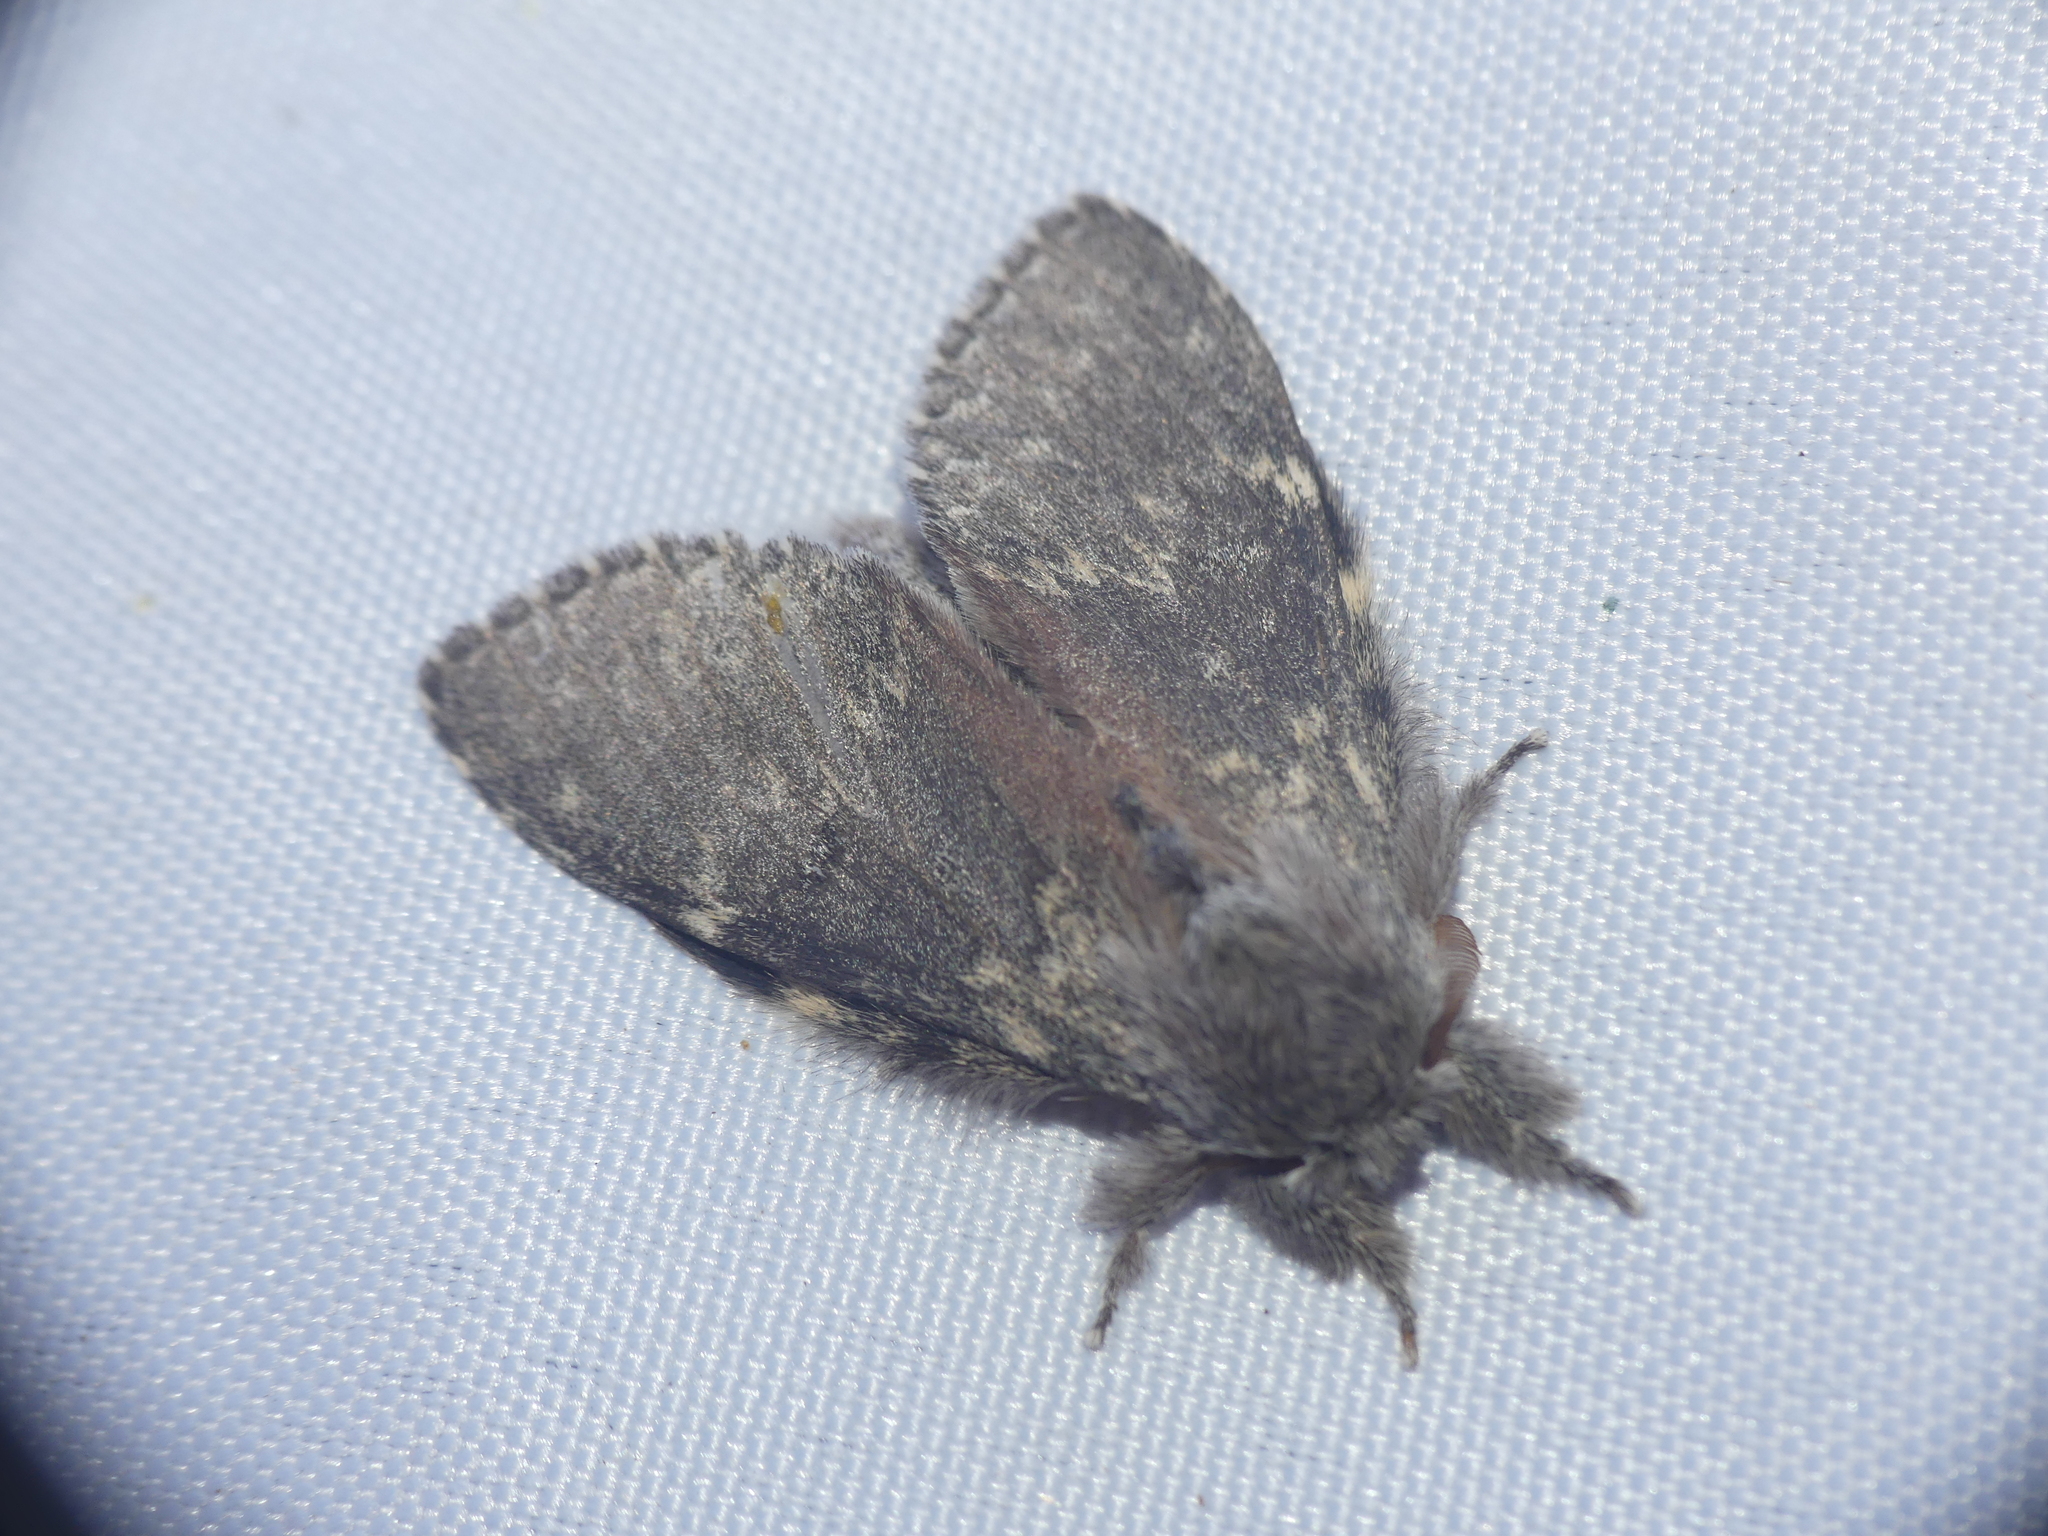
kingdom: Animalia
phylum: Arthropoda
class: Insecta
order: Lepidoptera
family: Notodontidae
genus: Stauropus
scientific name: Stauropus fagi
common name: Lobster moth
